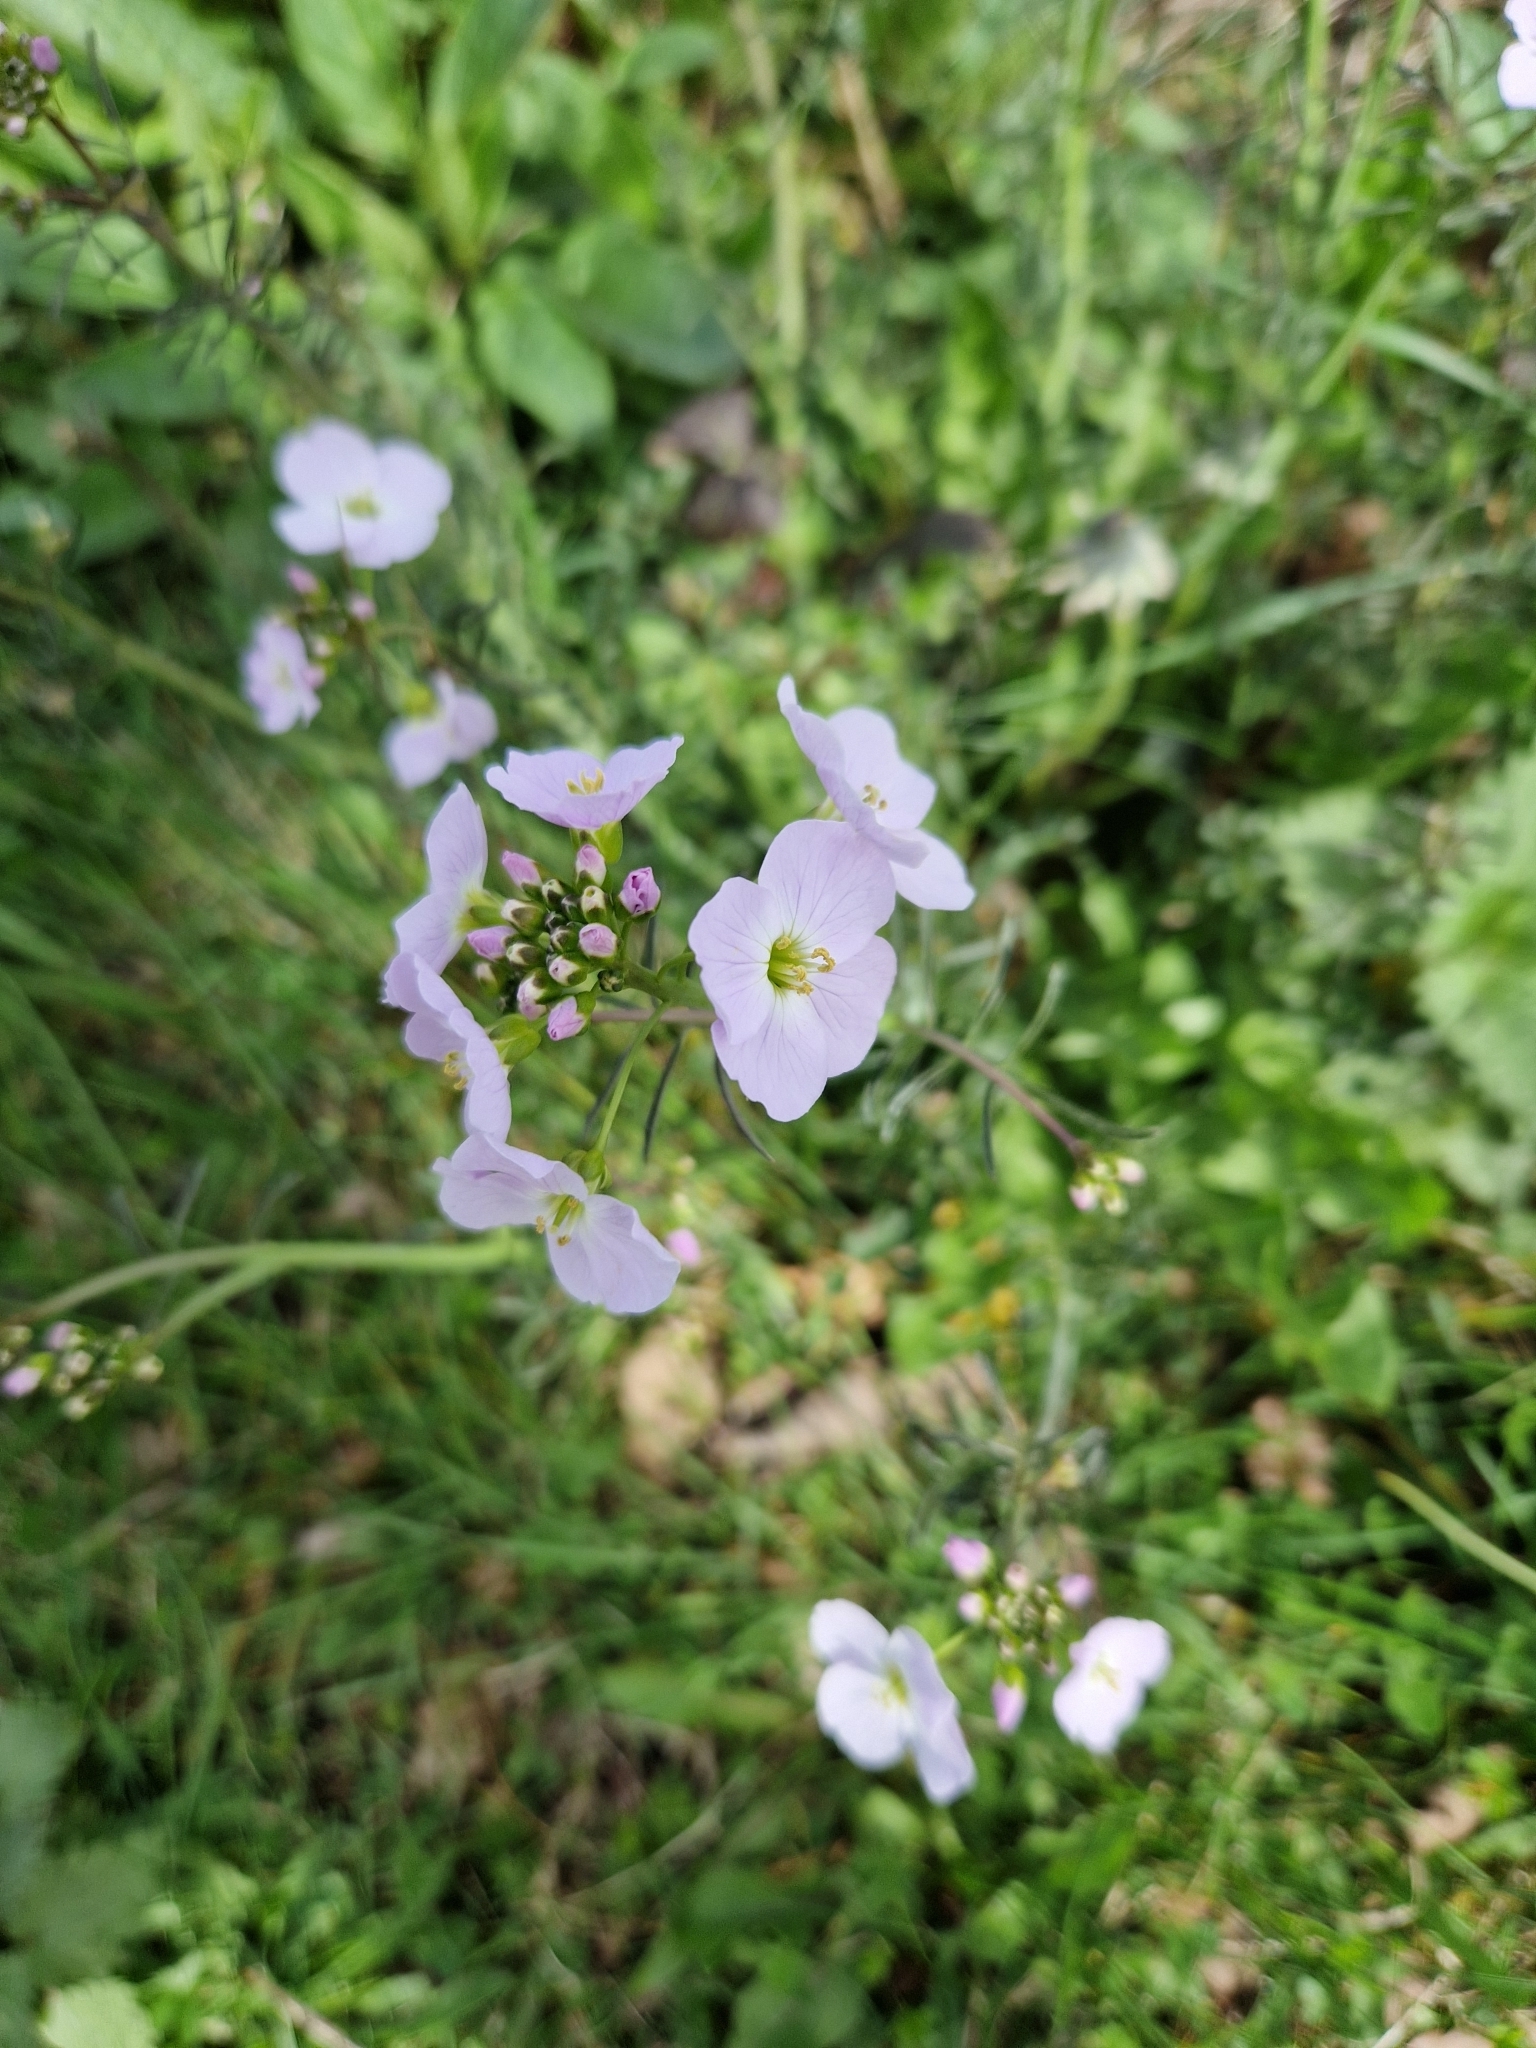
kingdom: Plantae
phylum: Tracheophyta
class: Magnoliopsida
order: Brassicales
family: Brassicaceae
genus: Cardamine
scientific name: Cardamine pratensis
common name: Cuckoo flower
